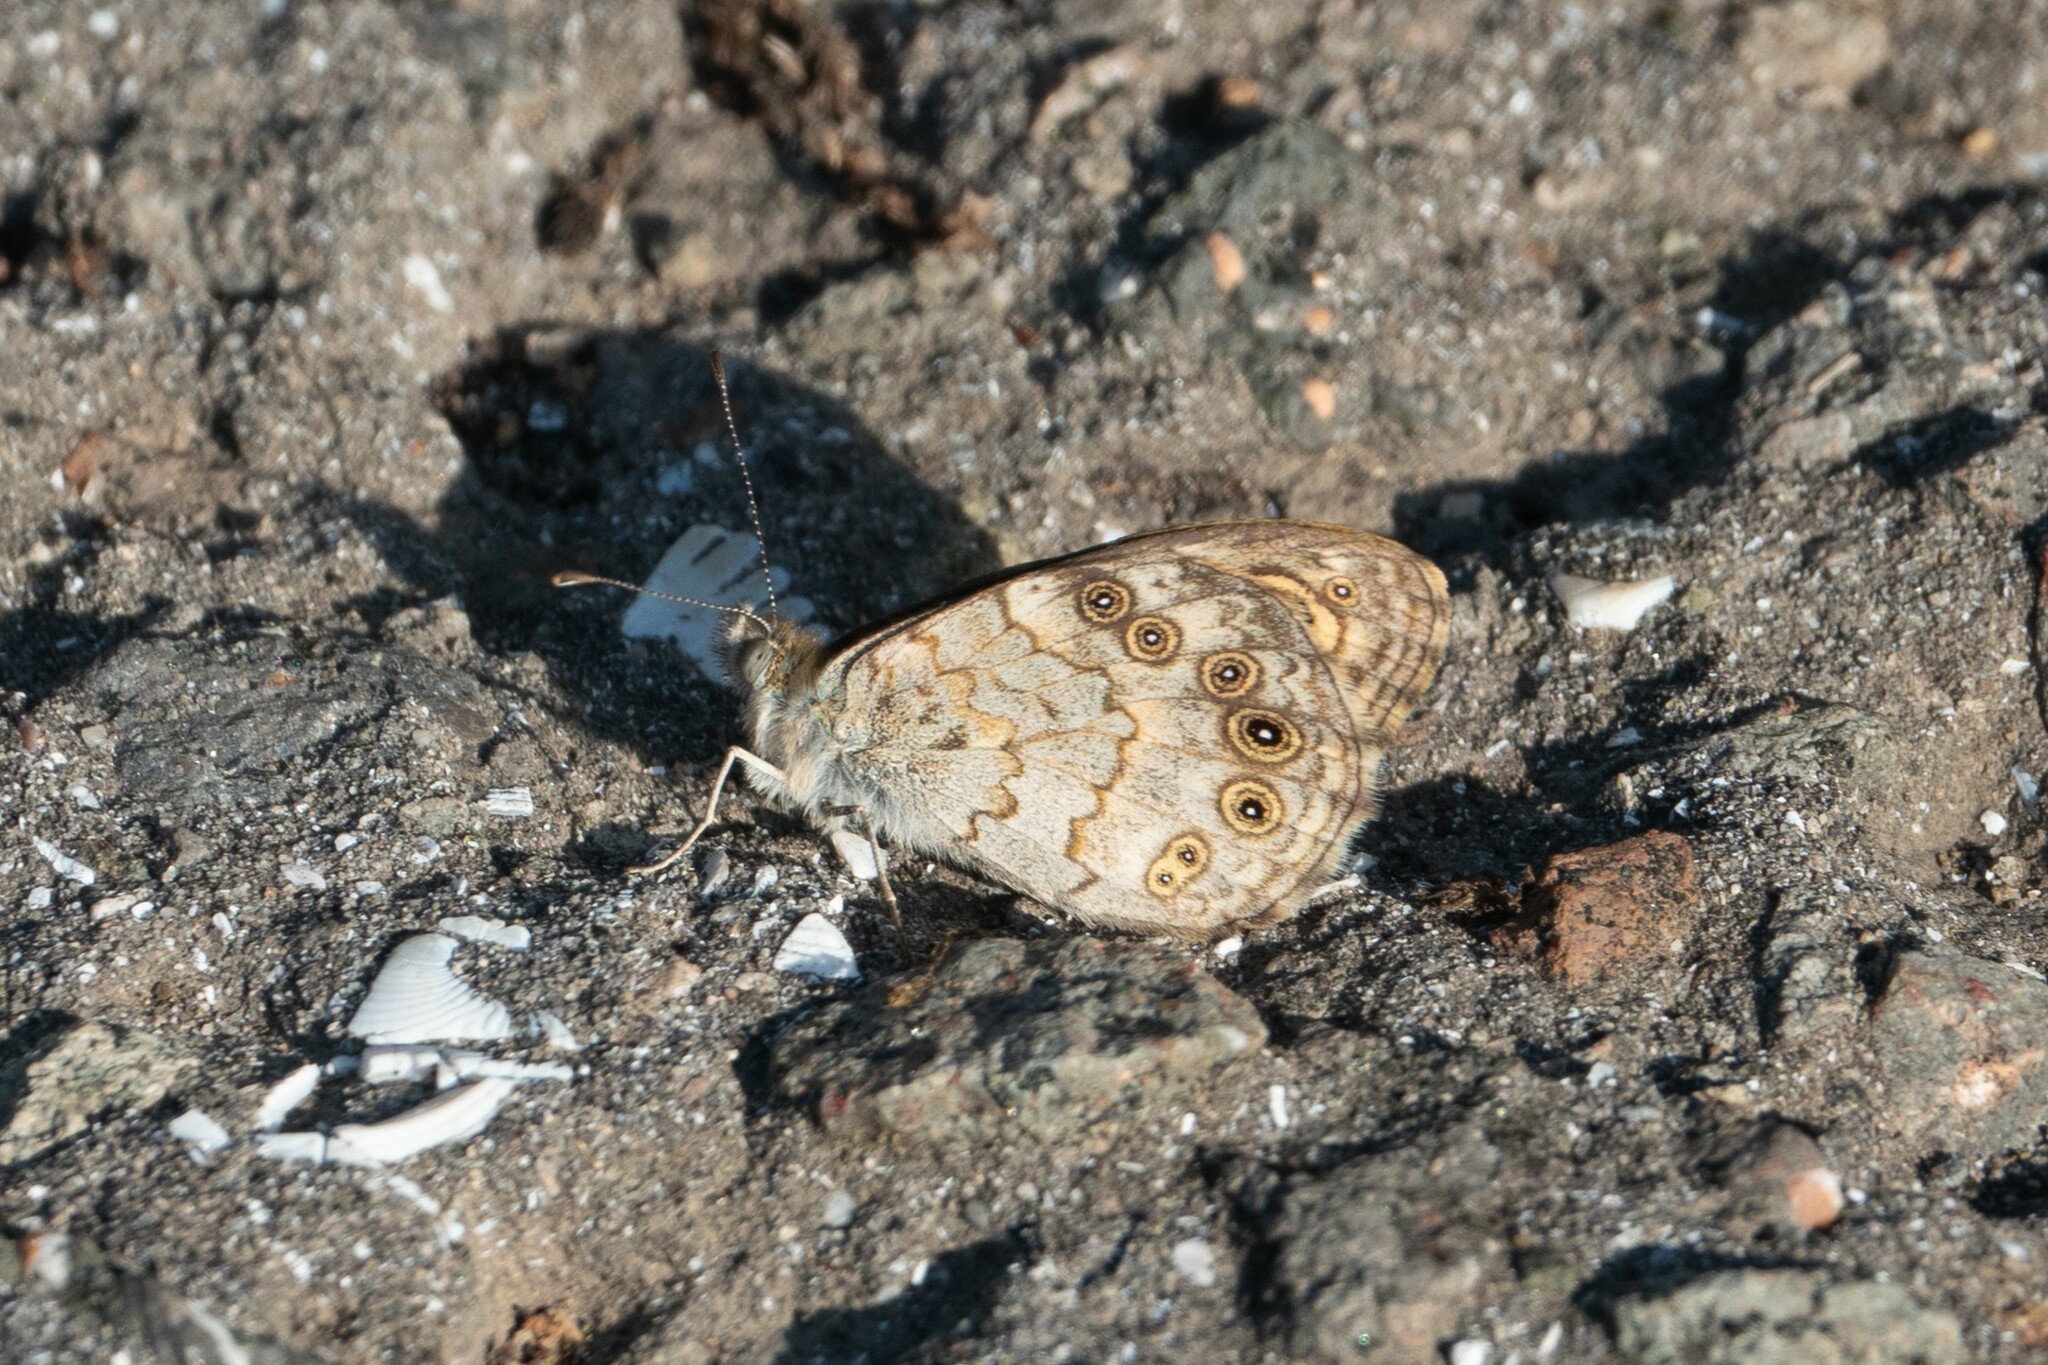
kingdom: Animalia
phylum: Arthropoda
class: Insecta
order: Lepidoptera
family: Nymphalidae
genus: Pararge
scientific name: Pararge Lasiommata megera
